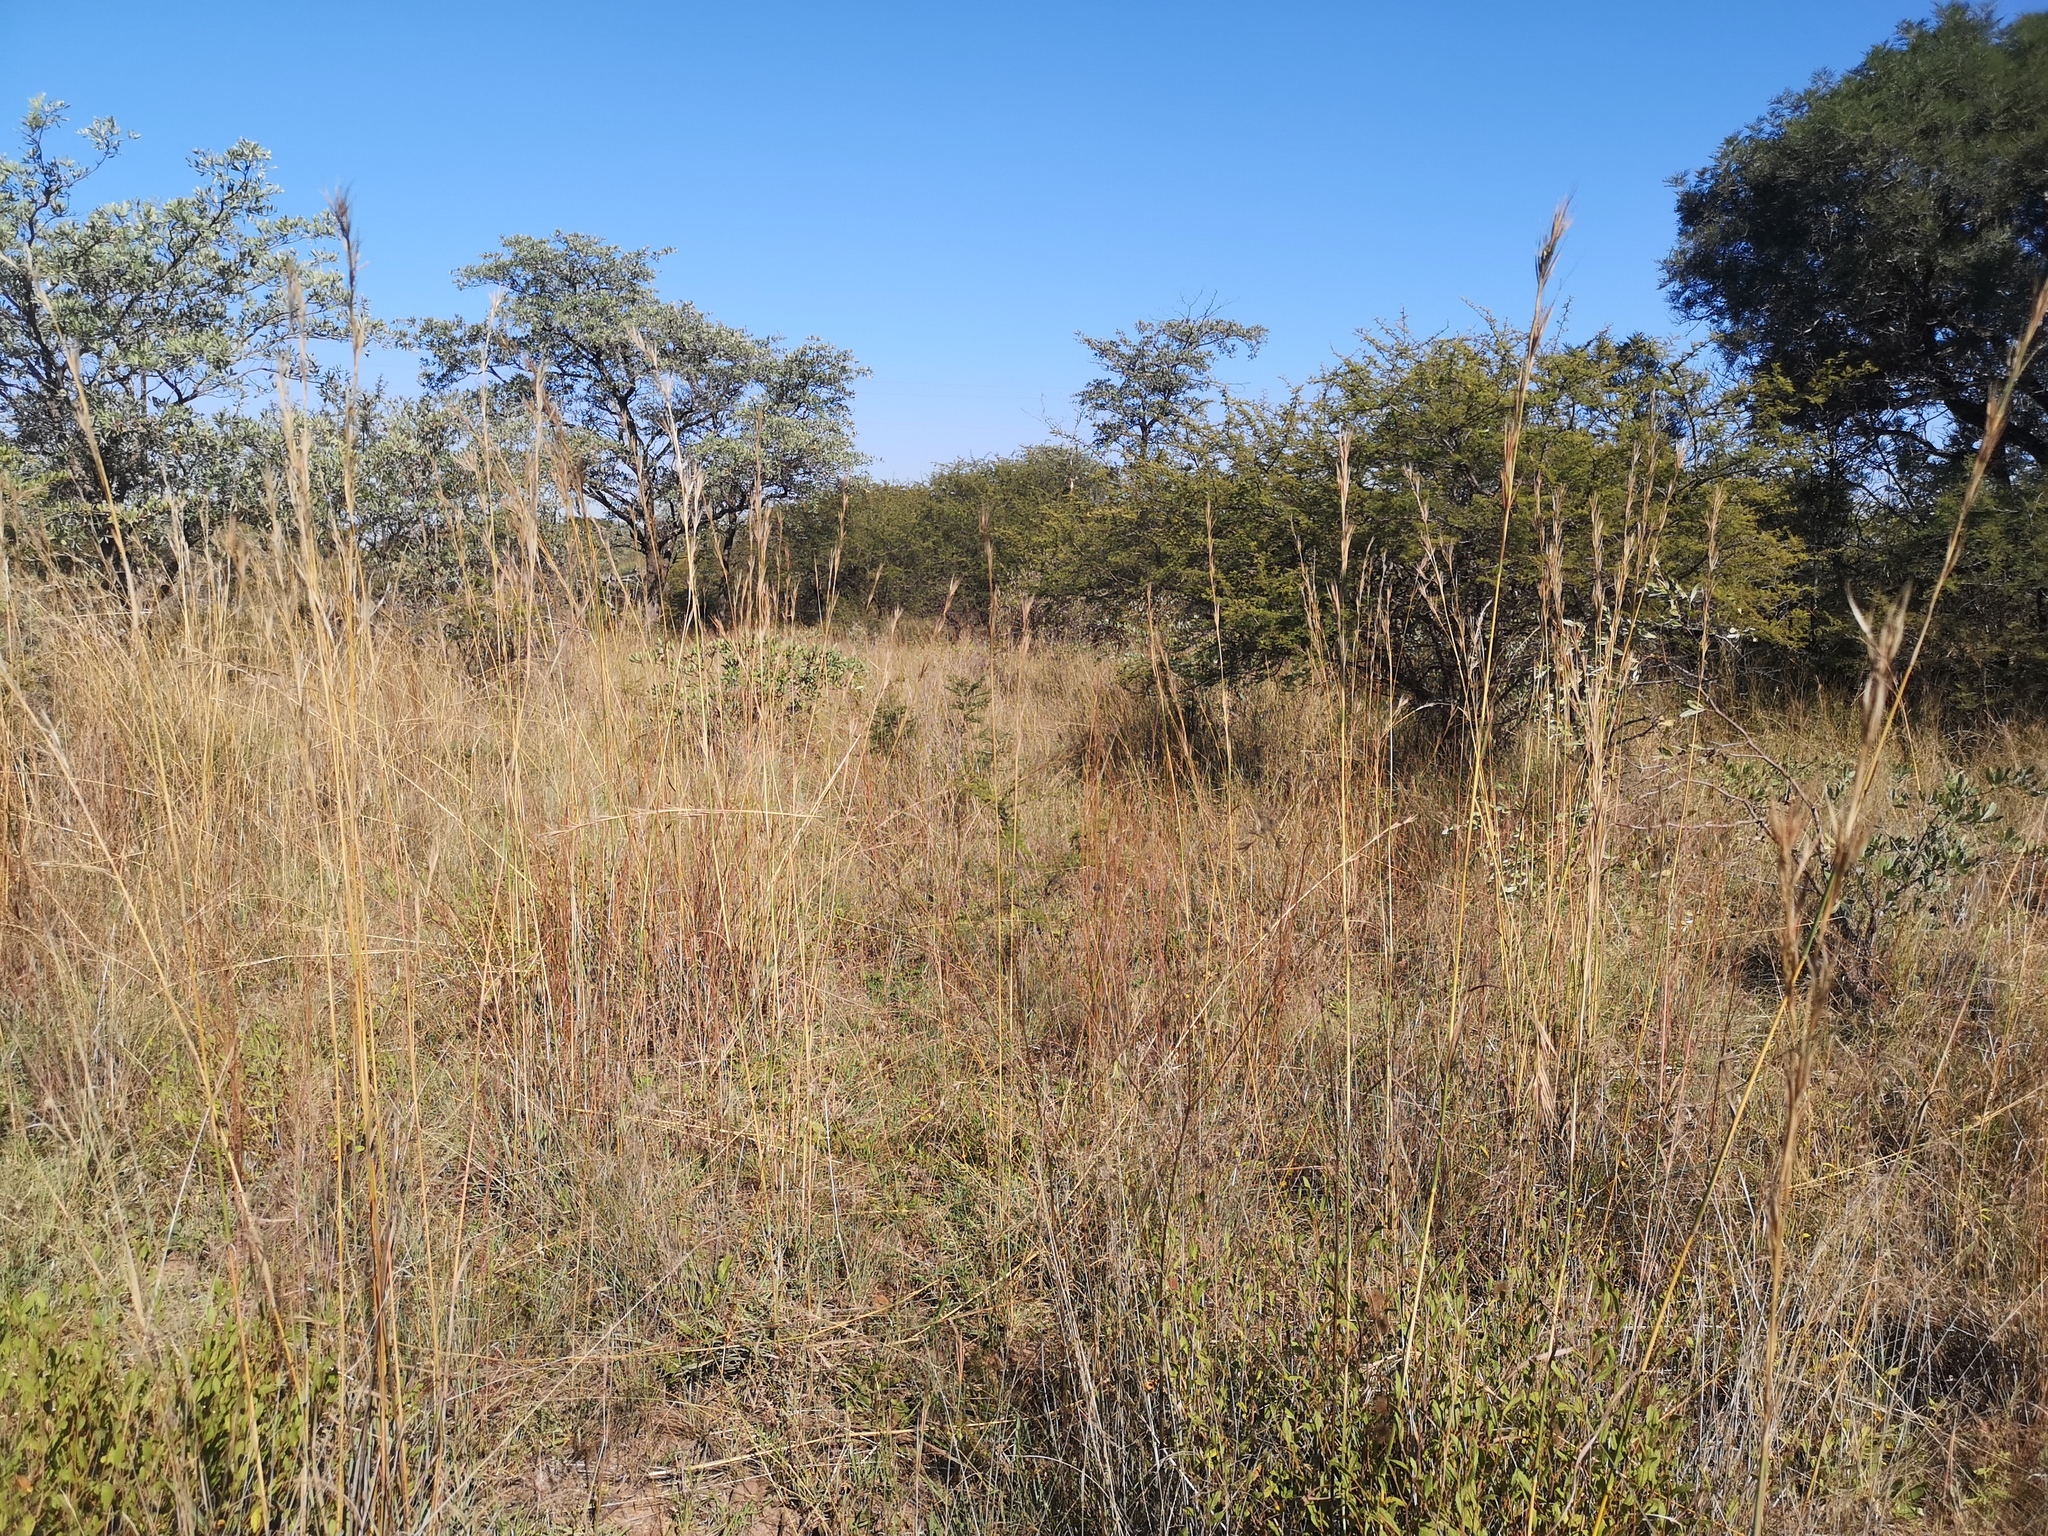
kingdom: Plantae
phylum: Tracheophyta
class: Liliopsida
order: Poales
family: Poaceae
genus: Hyperthelia
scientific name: Hyperthelia dissoluta
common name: Yellow thatching grass
